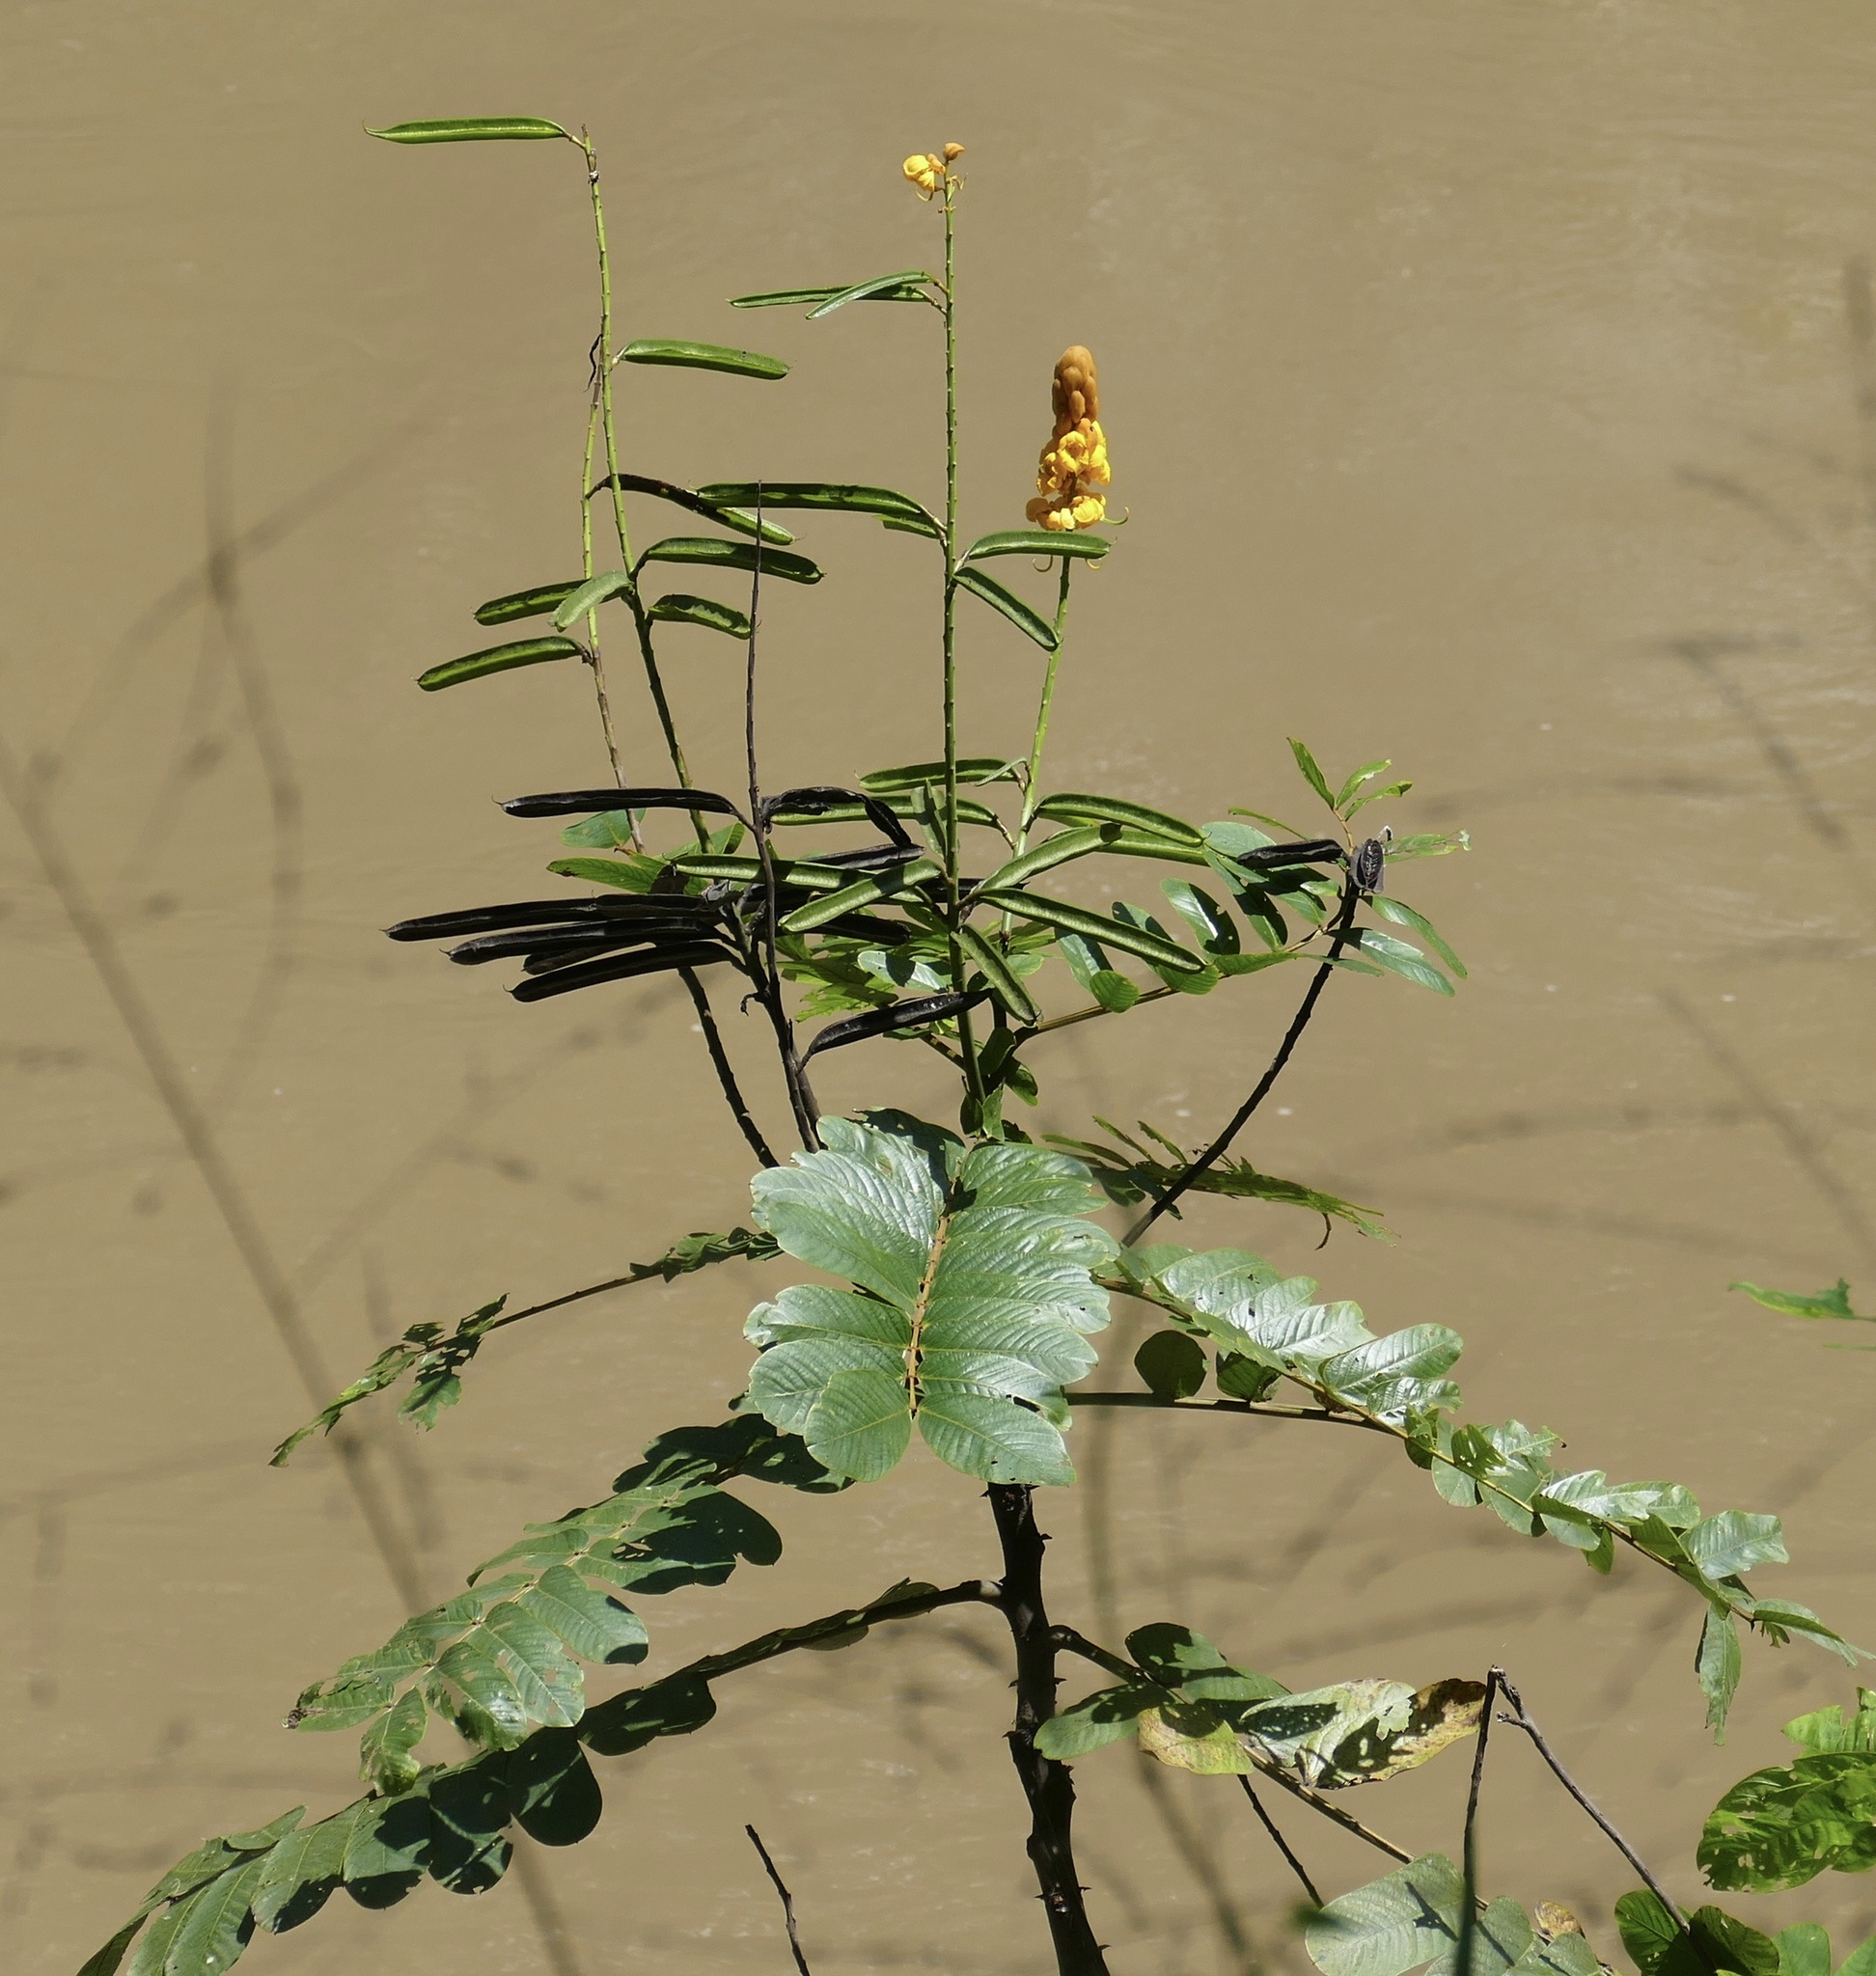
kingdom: Plantae
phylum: Tracheophyta
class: Magnoliopsida
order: Fabales
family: Fabaceae
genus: Senna
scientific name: Senna alata
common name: Emperor's candlesticks
